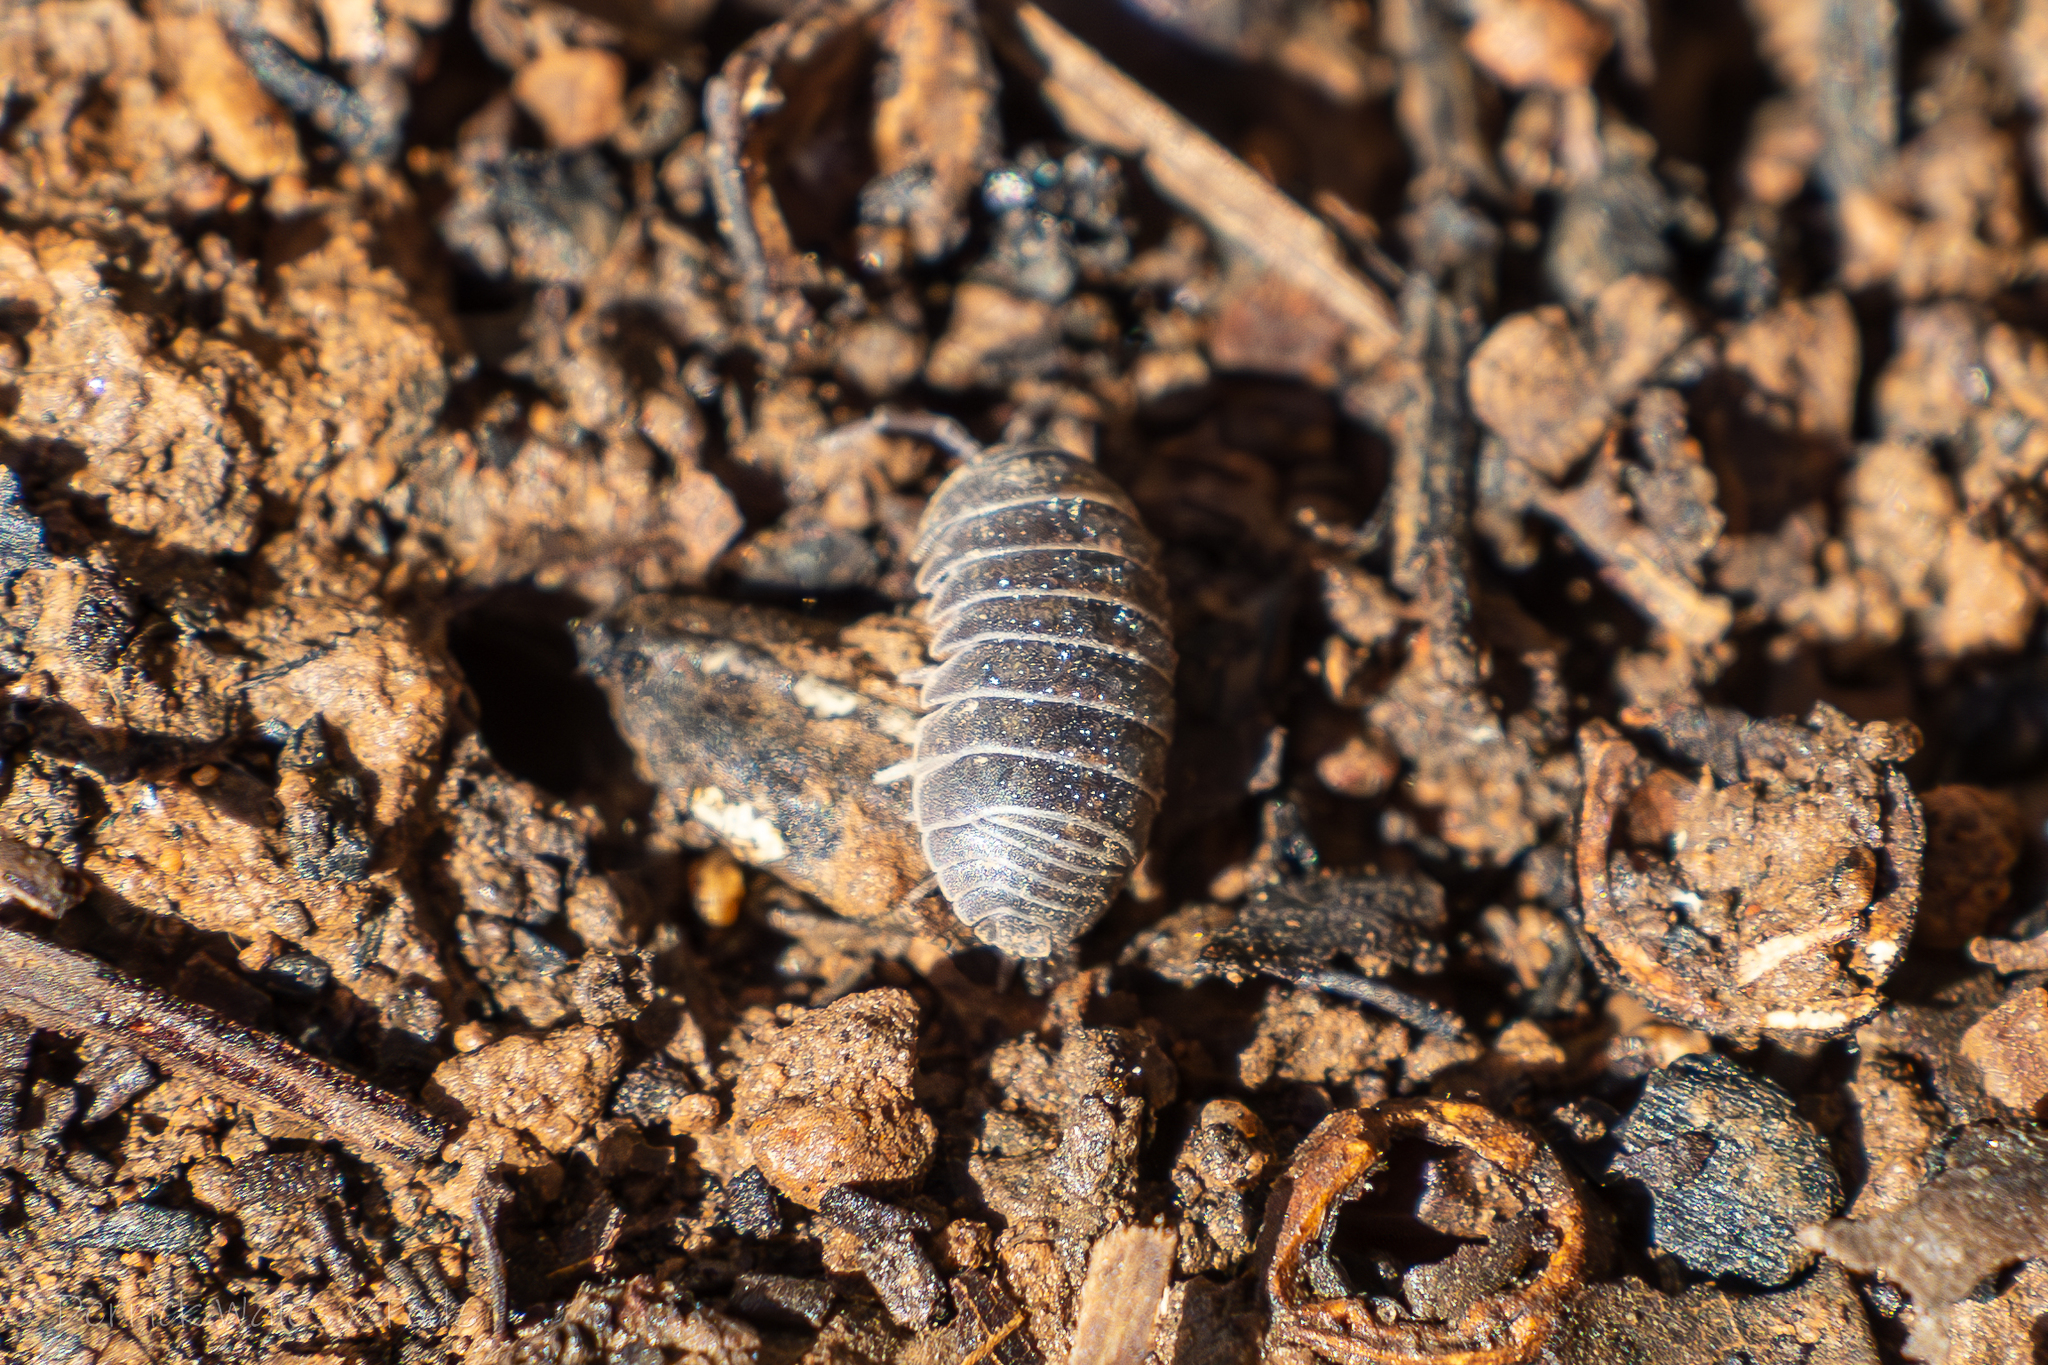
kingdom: Animalia
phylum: Arthropoda
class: Malacostraca
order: Isopoda
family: Armadillidiidae
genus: Armadillidium
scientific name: Armadillidium vulgare
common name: Common pill woodlouse
